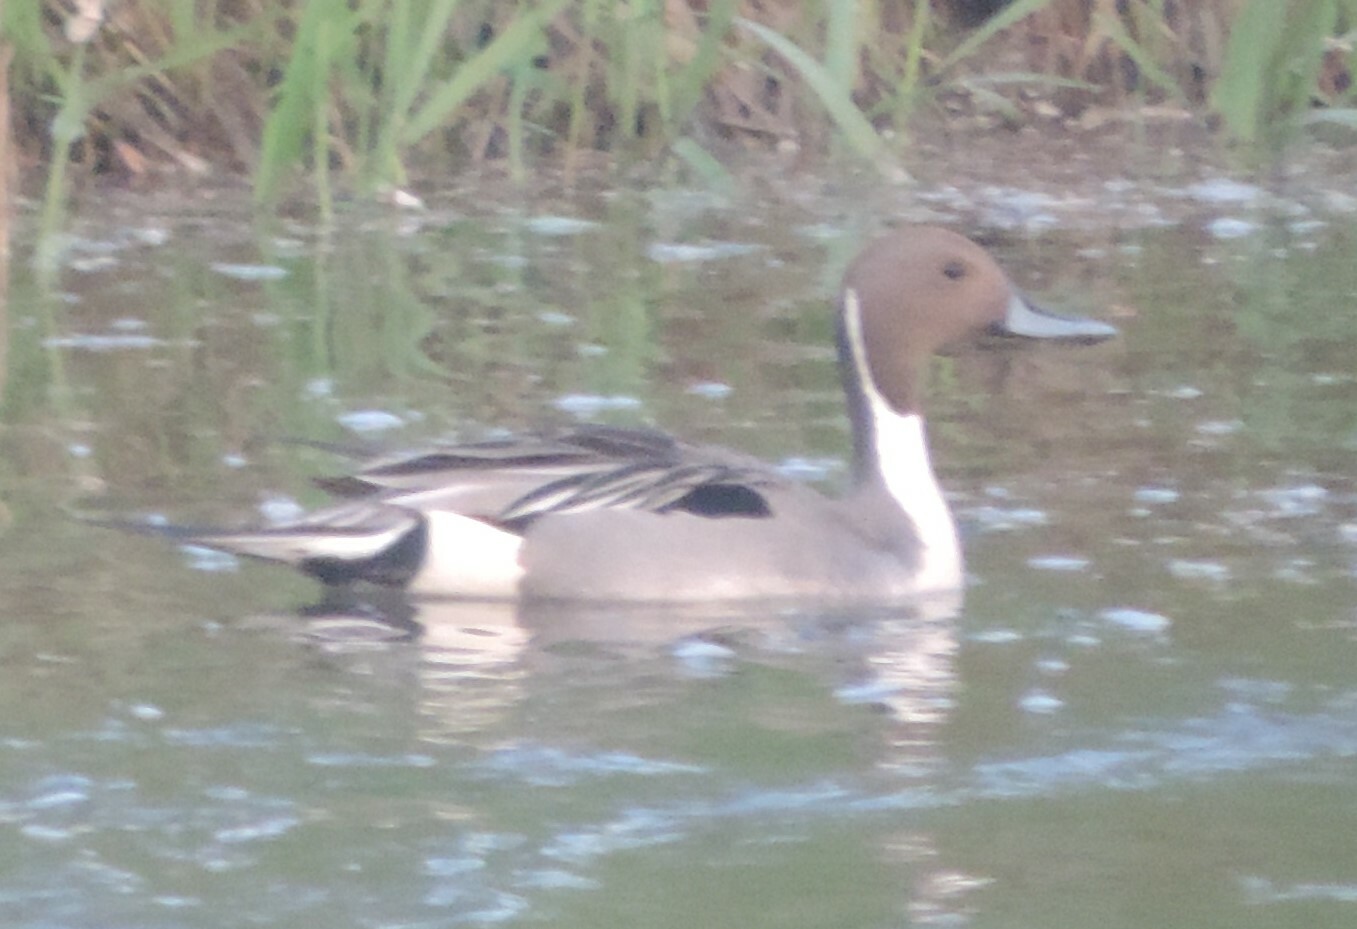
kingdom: Animalia
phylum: Chordata
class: Aves
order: Anseriformes
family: Anatidae
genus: Anas
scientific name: Anas acuta
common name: Northern pintail
